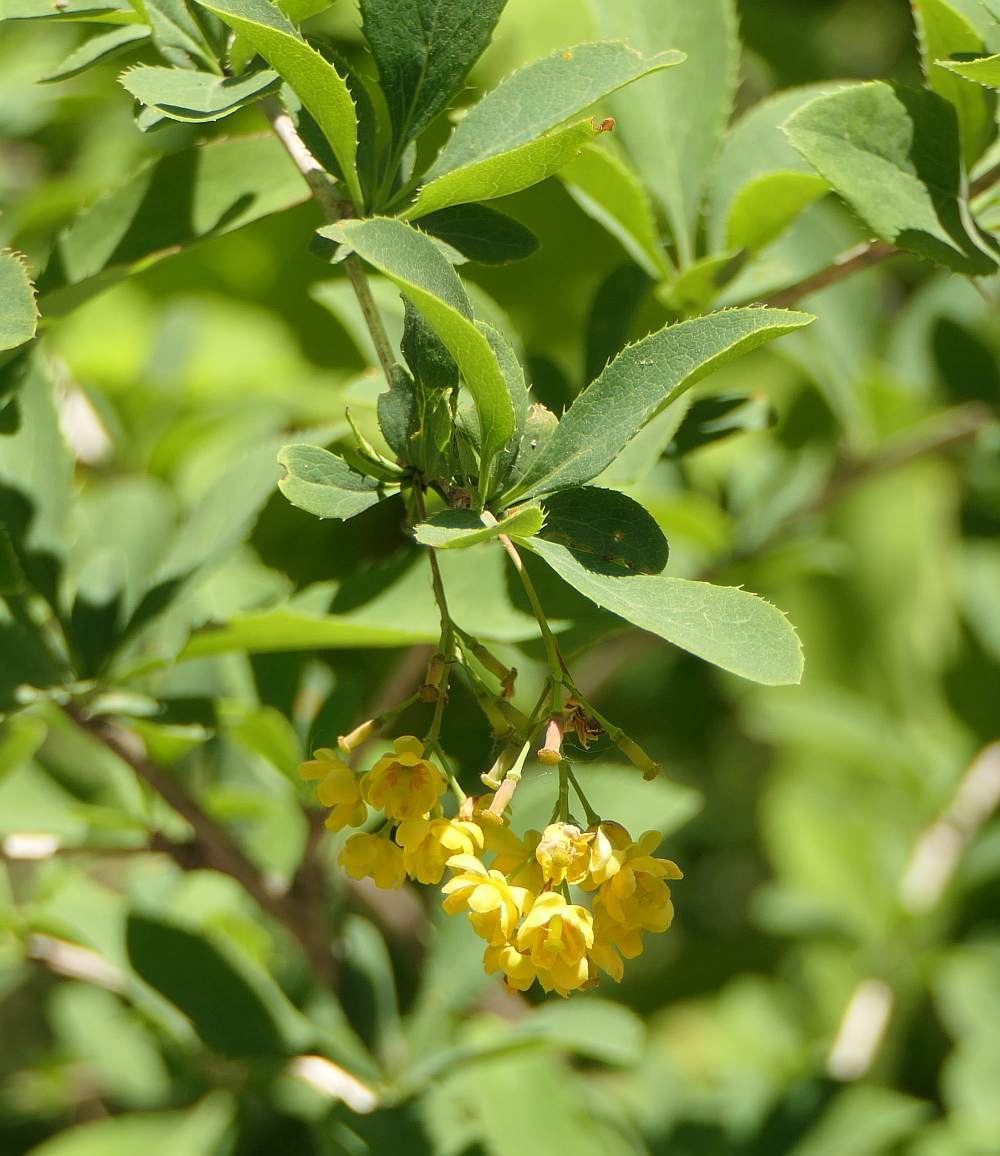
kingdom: Plantae
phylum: Tracheophyta
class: Magnoliopsida
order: Ranunculales
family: Berberidaceae
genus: Berberis
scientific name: Berberis vulgaris
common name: Barberry
